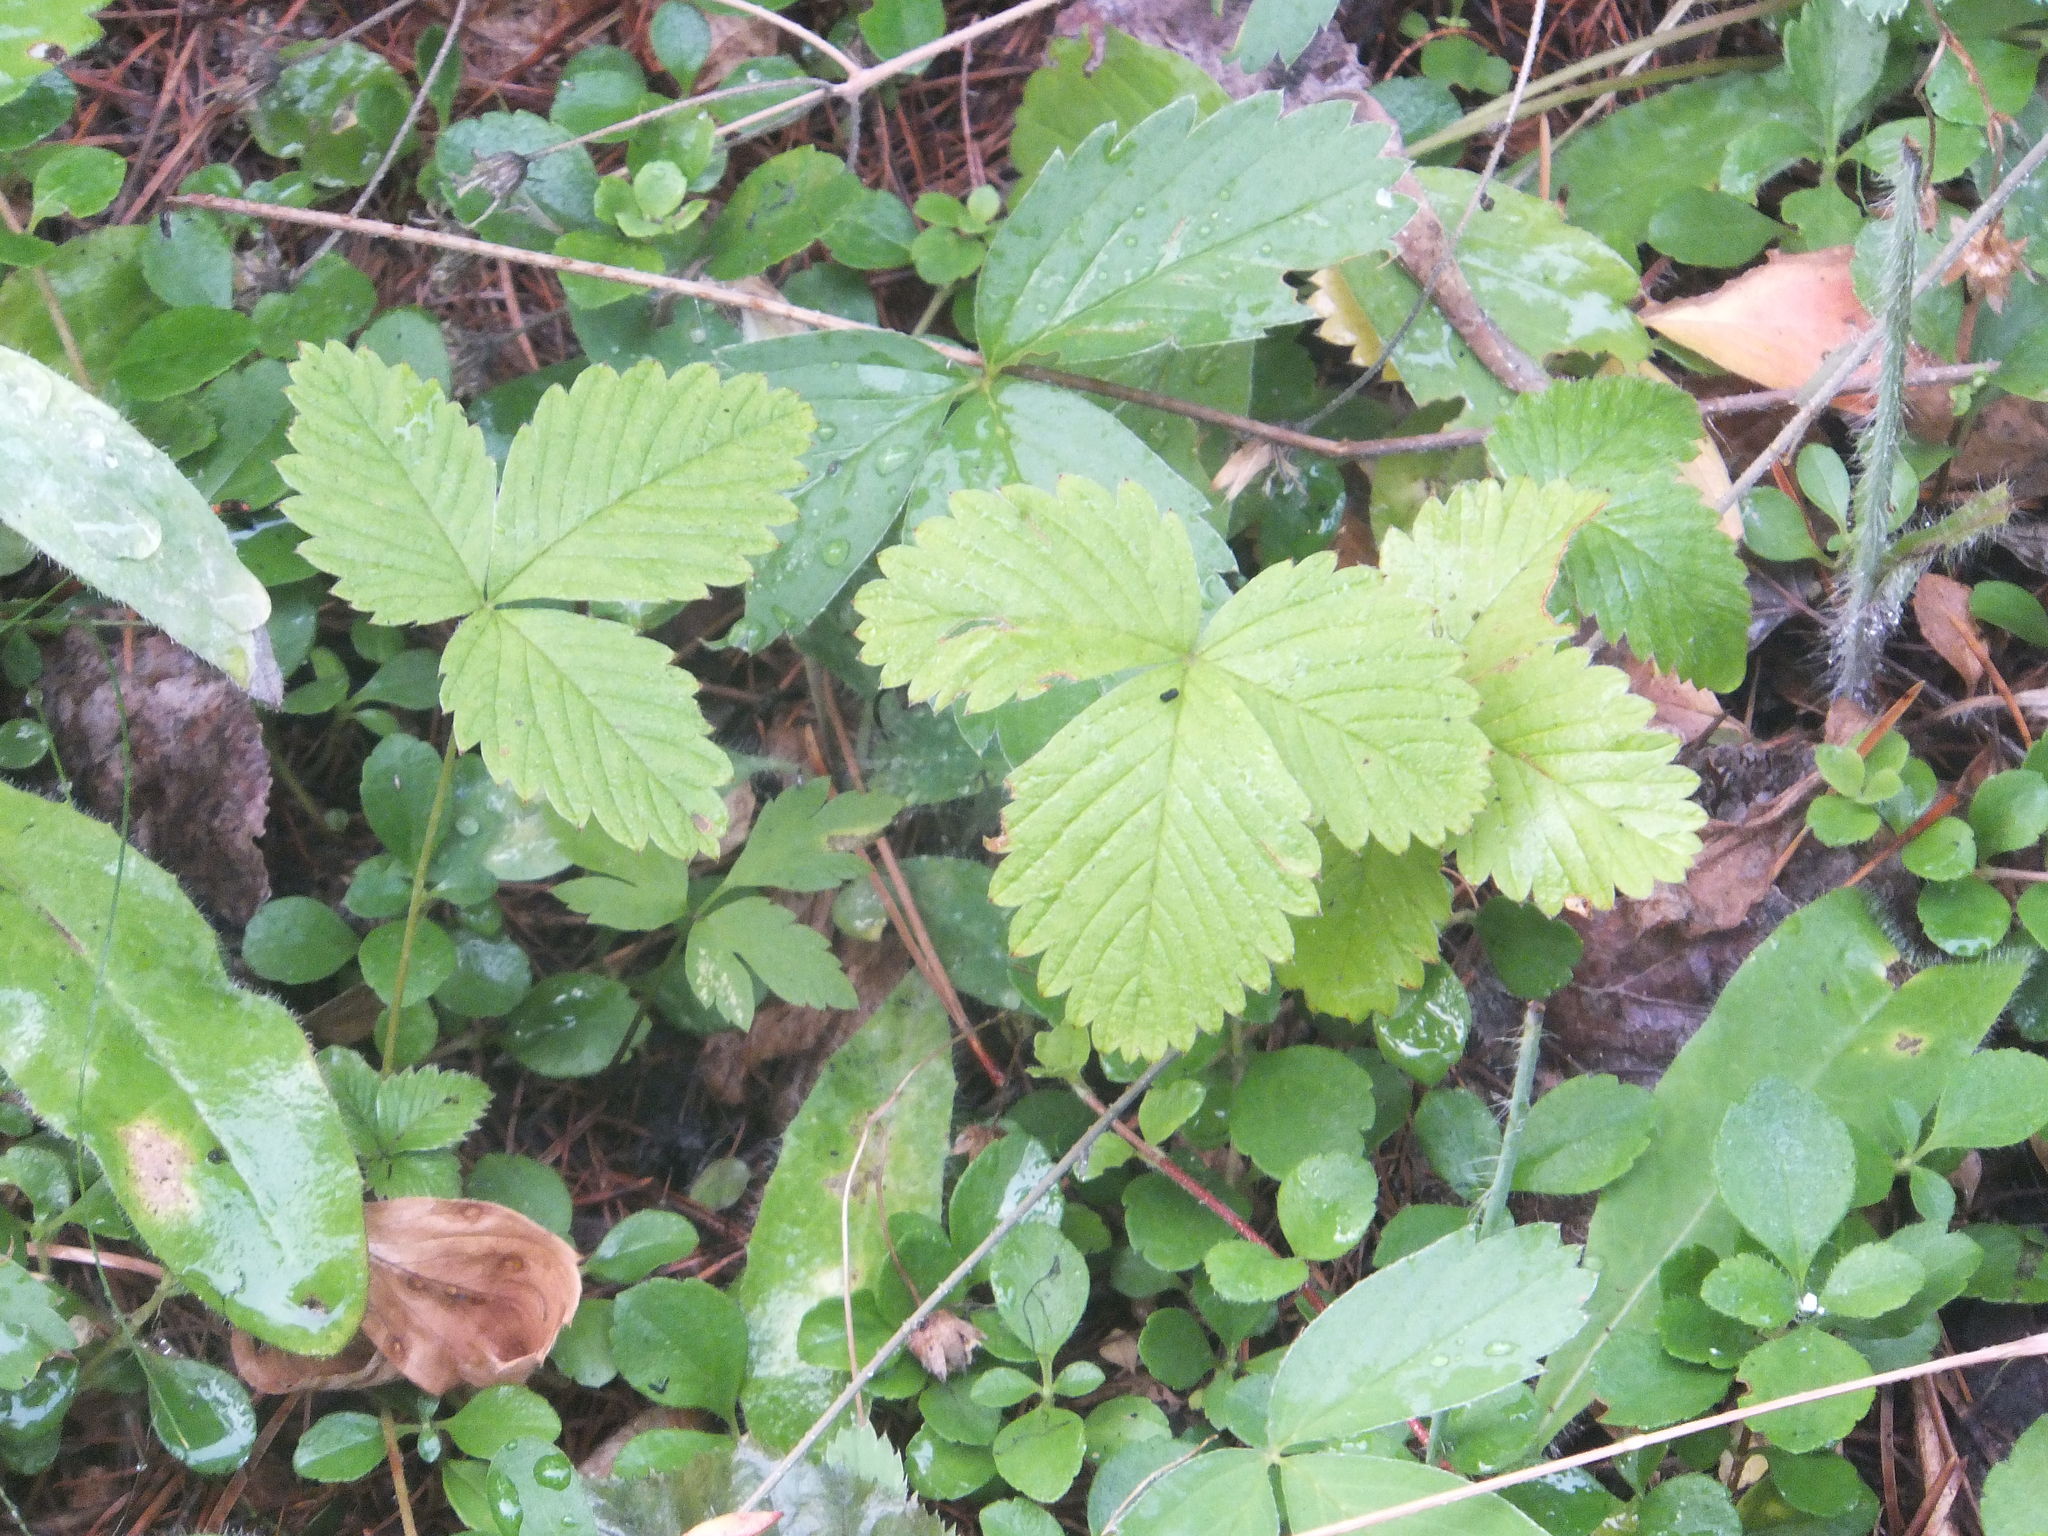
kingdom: Plantae
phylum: Tracheophyta
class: Magnoliopsida
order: Rosales
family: Rosaceae
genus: Fragaria
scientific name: Fragaria vesca
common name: Wild strawberry
